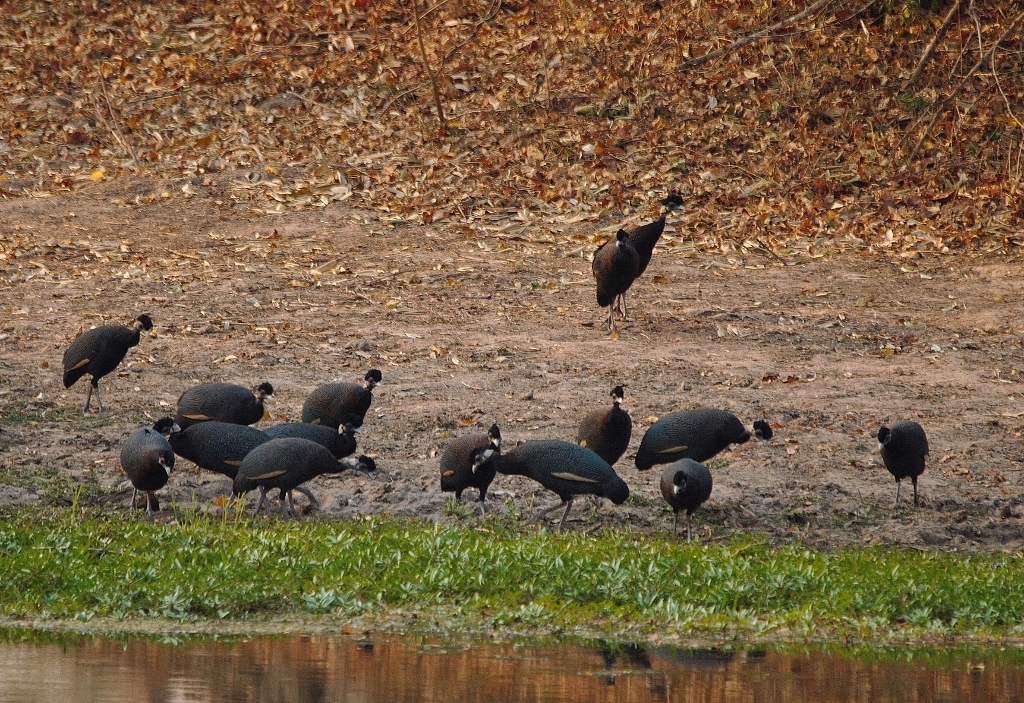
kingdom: Animalia
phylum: Chordata
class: Aves
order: Galliformes
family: Numididae
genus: Guttera
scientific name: Guttera pucherani
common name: Crested guineafowl
